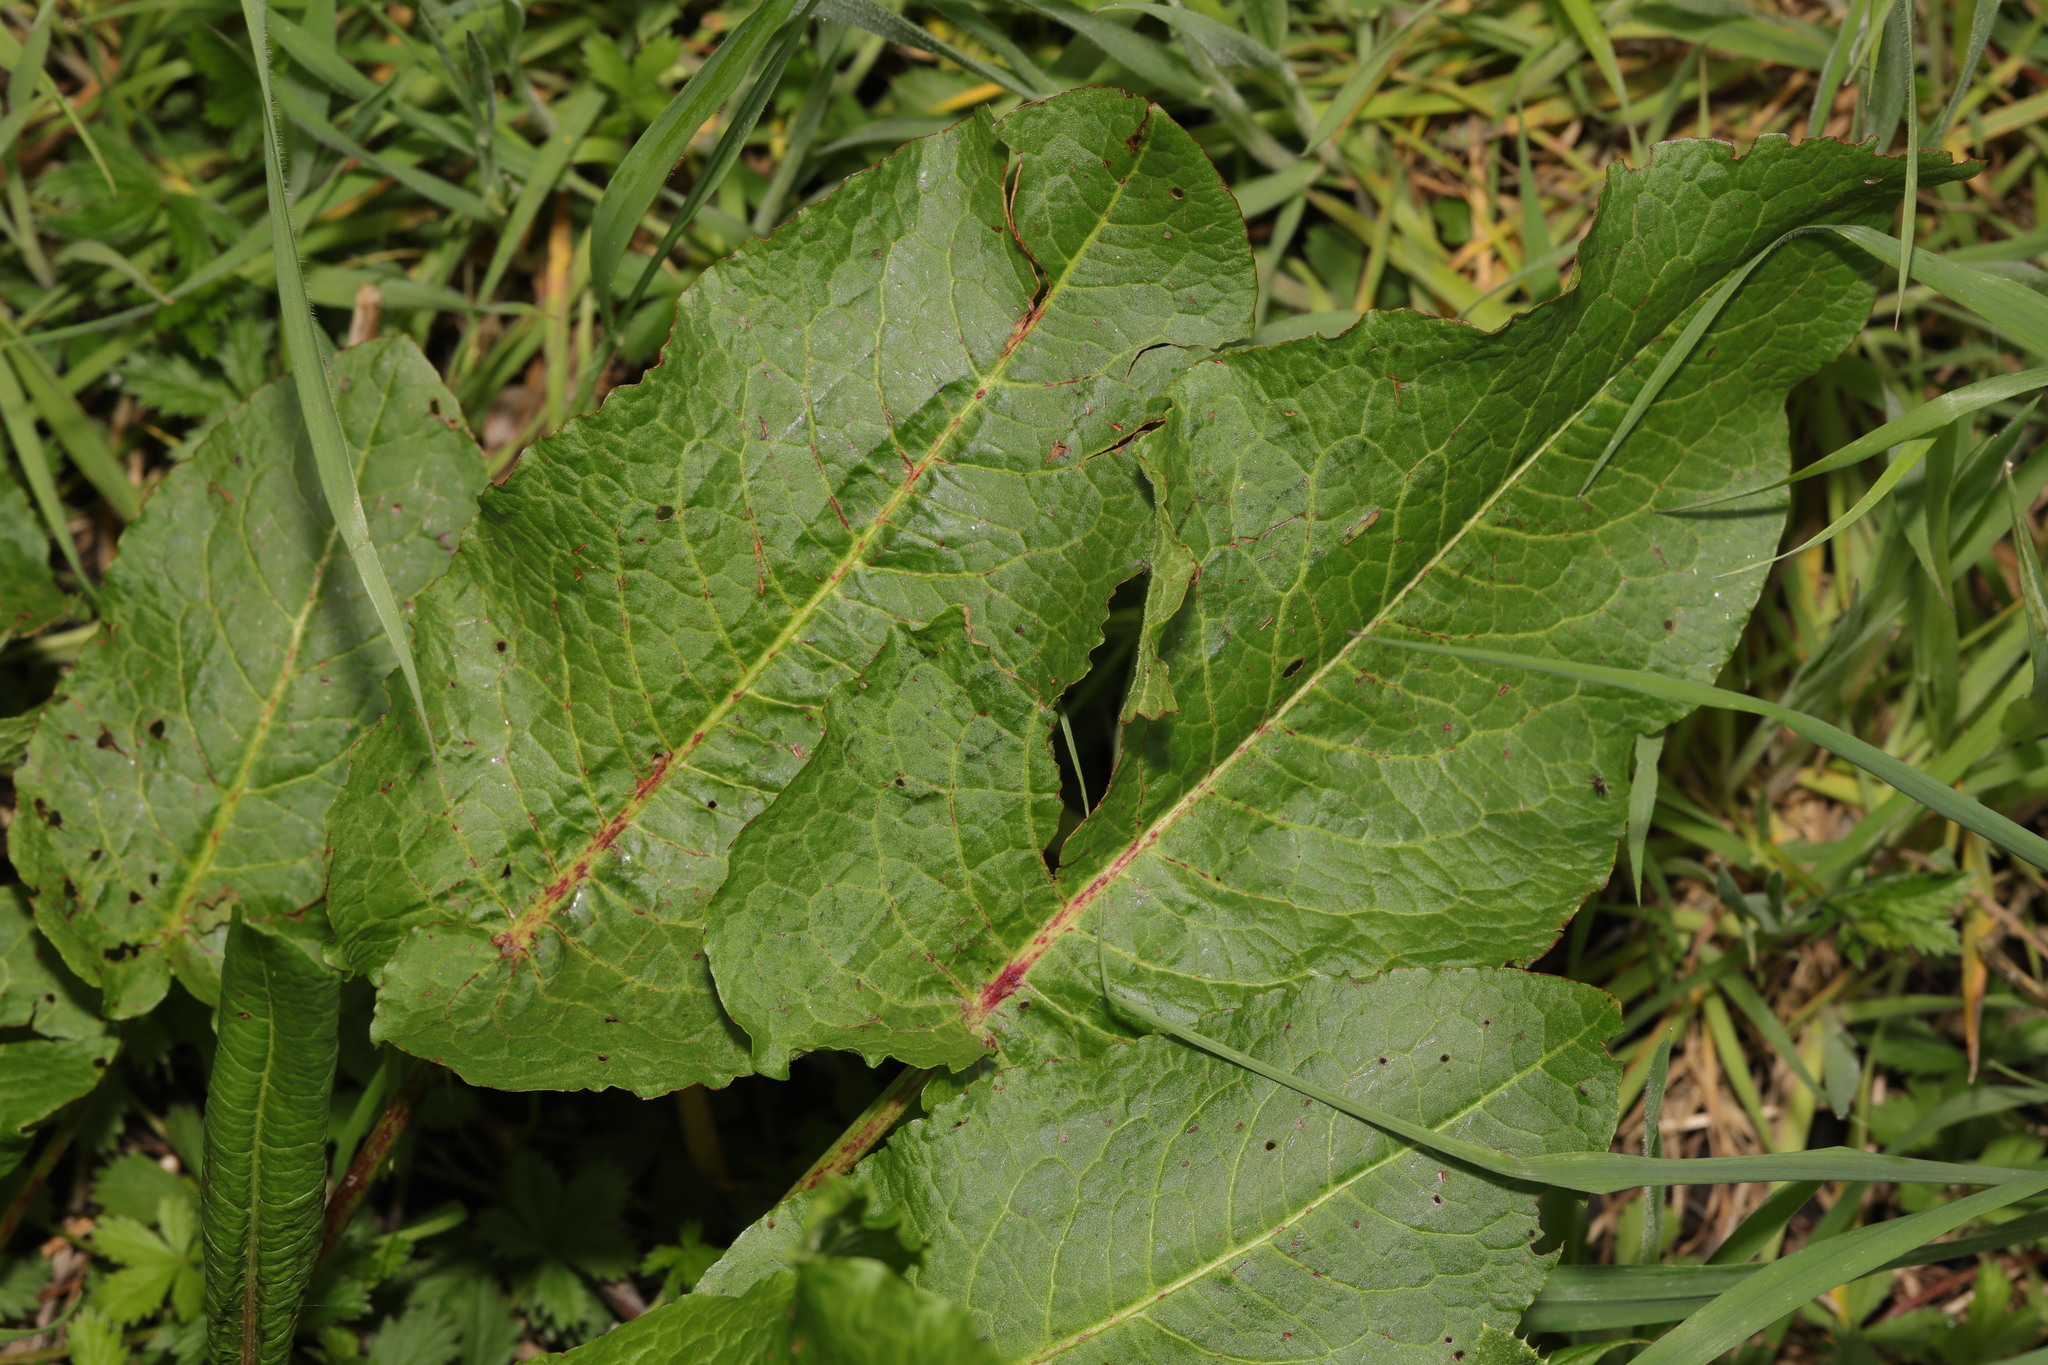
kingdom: Plantae
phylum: Tracheophyta
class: Magnoliopsida
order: Caryophyllales
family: Polygonaceae
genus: Rumex
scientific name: Rumex obtusifolius
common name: Bitter dock
